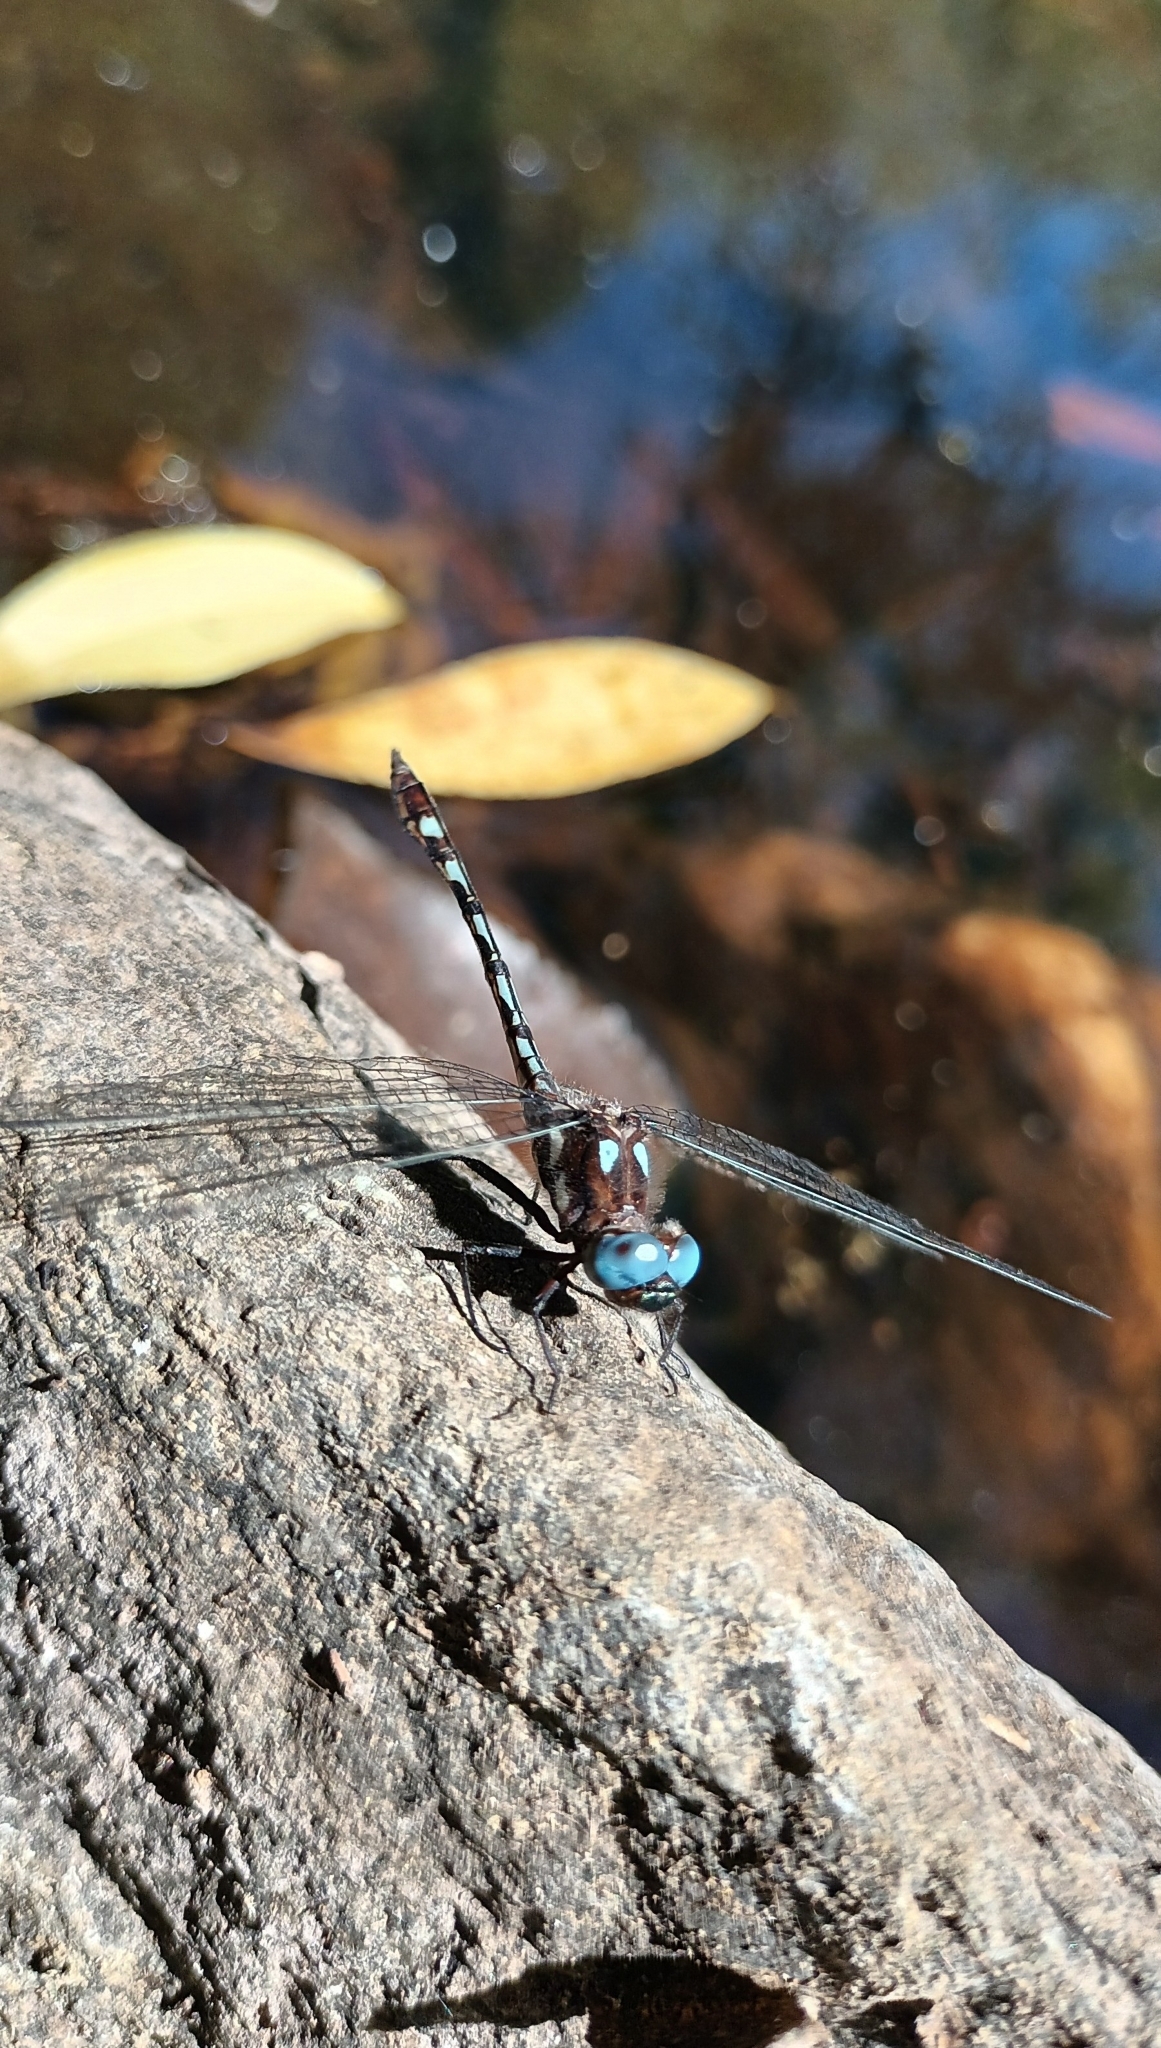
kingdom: Animalia
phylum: Arthropoda
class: Insecta
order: Odonata
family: Libellulidae
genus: Macrothemis
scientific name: Macrothemis imitans
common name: Ivory-striped sylph
